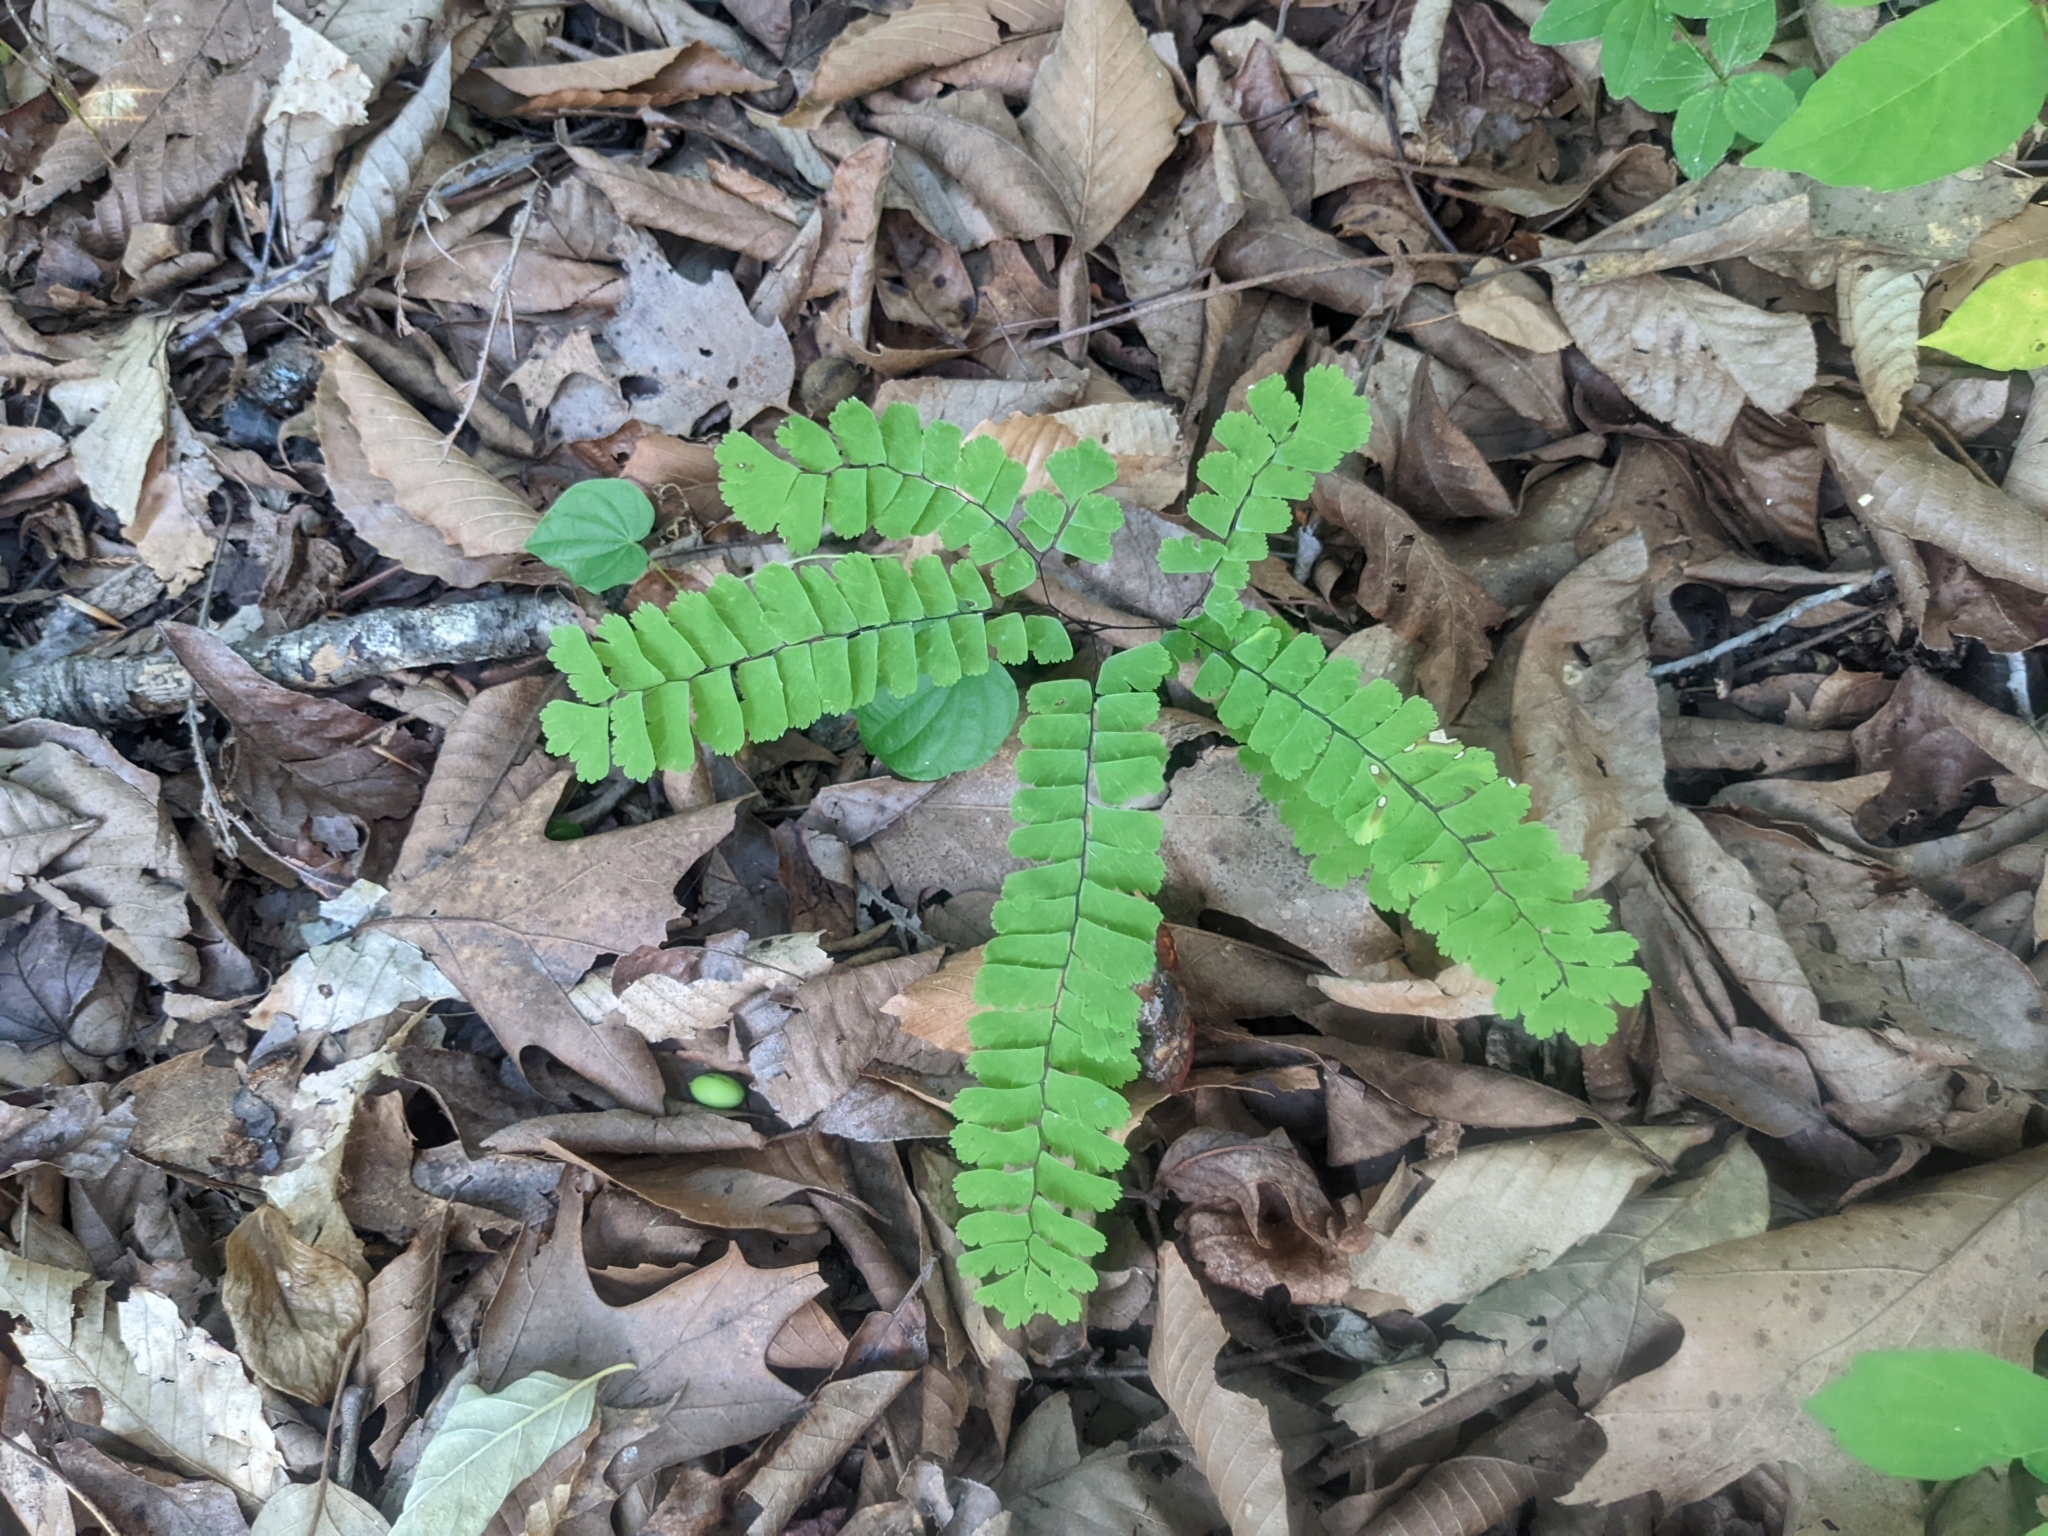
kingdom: Plantae
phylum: Tracheophyta
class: Polypodiopsida
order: Polypodiales
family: Pteridaceae
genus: Adiantum
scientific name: Adiantum pedatum
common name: Five-finger fern
